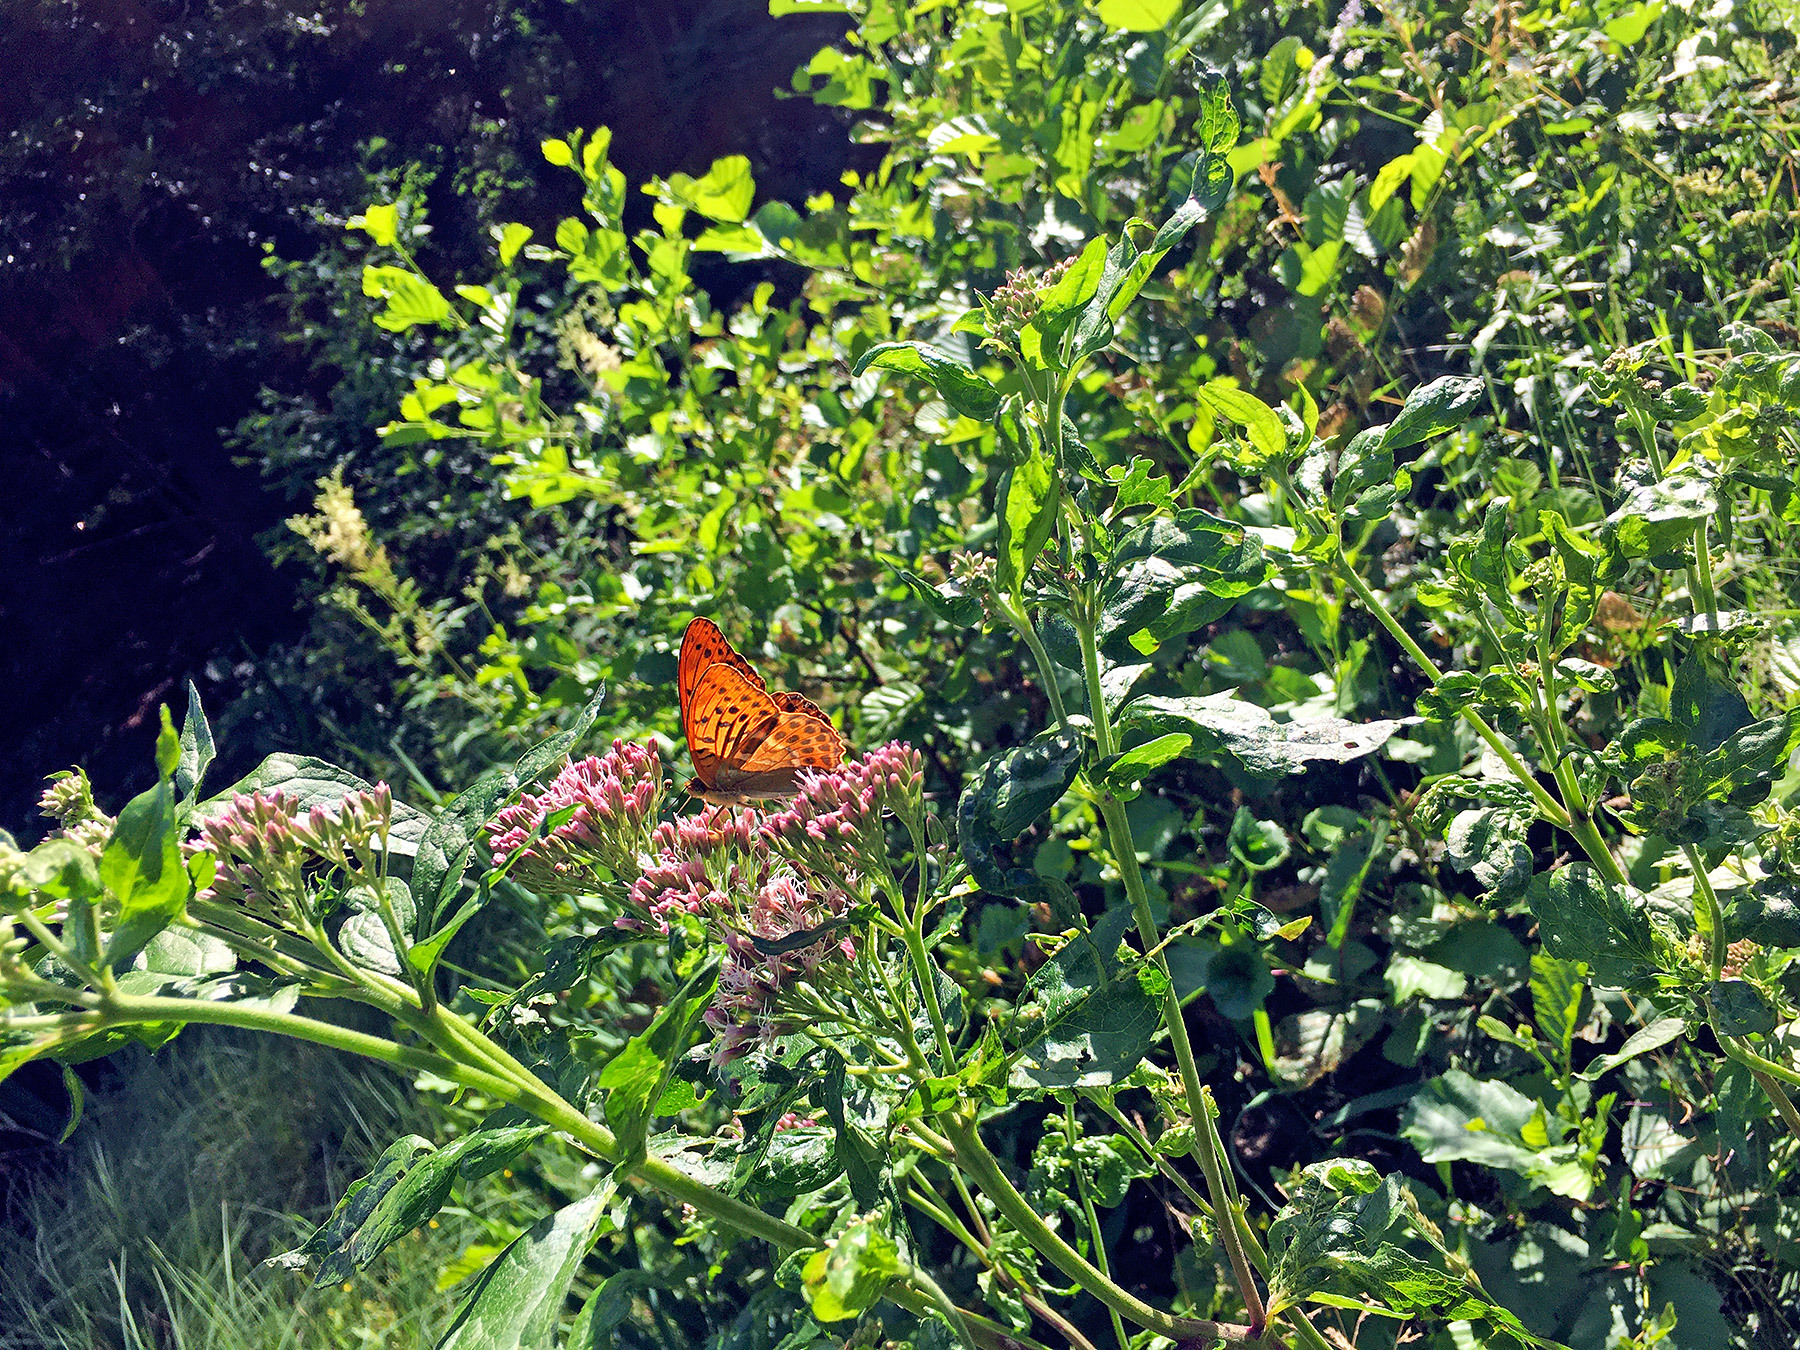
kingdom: Animalia
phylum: Arthropoda
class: Insecta
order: Lepidoptera
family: Nymphalidae
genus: Argynnis
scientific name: Argynnis paphia
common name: Silver-washed fritillary
